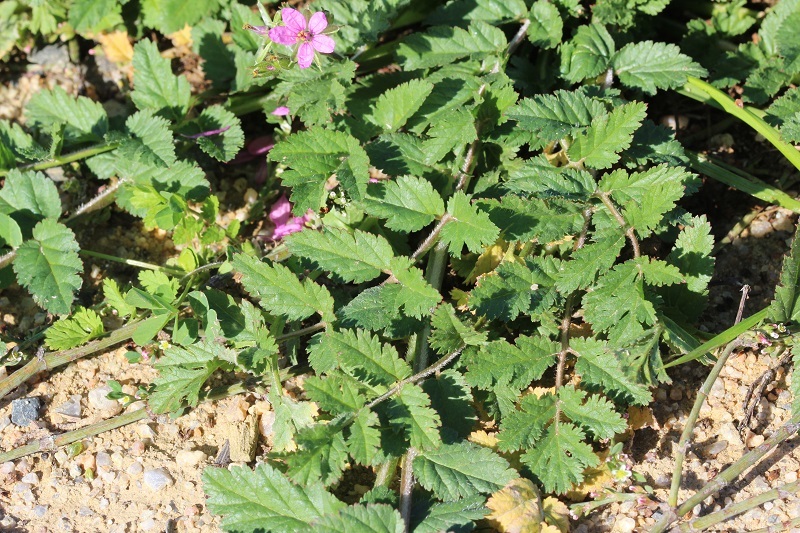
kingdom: Plantae
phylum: Tracheophyta
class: Magnoliopsida
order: Geraniales
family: Geraniaceae
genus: Erodium
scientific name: Erodium moschatum
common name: Musk stork's-bill
